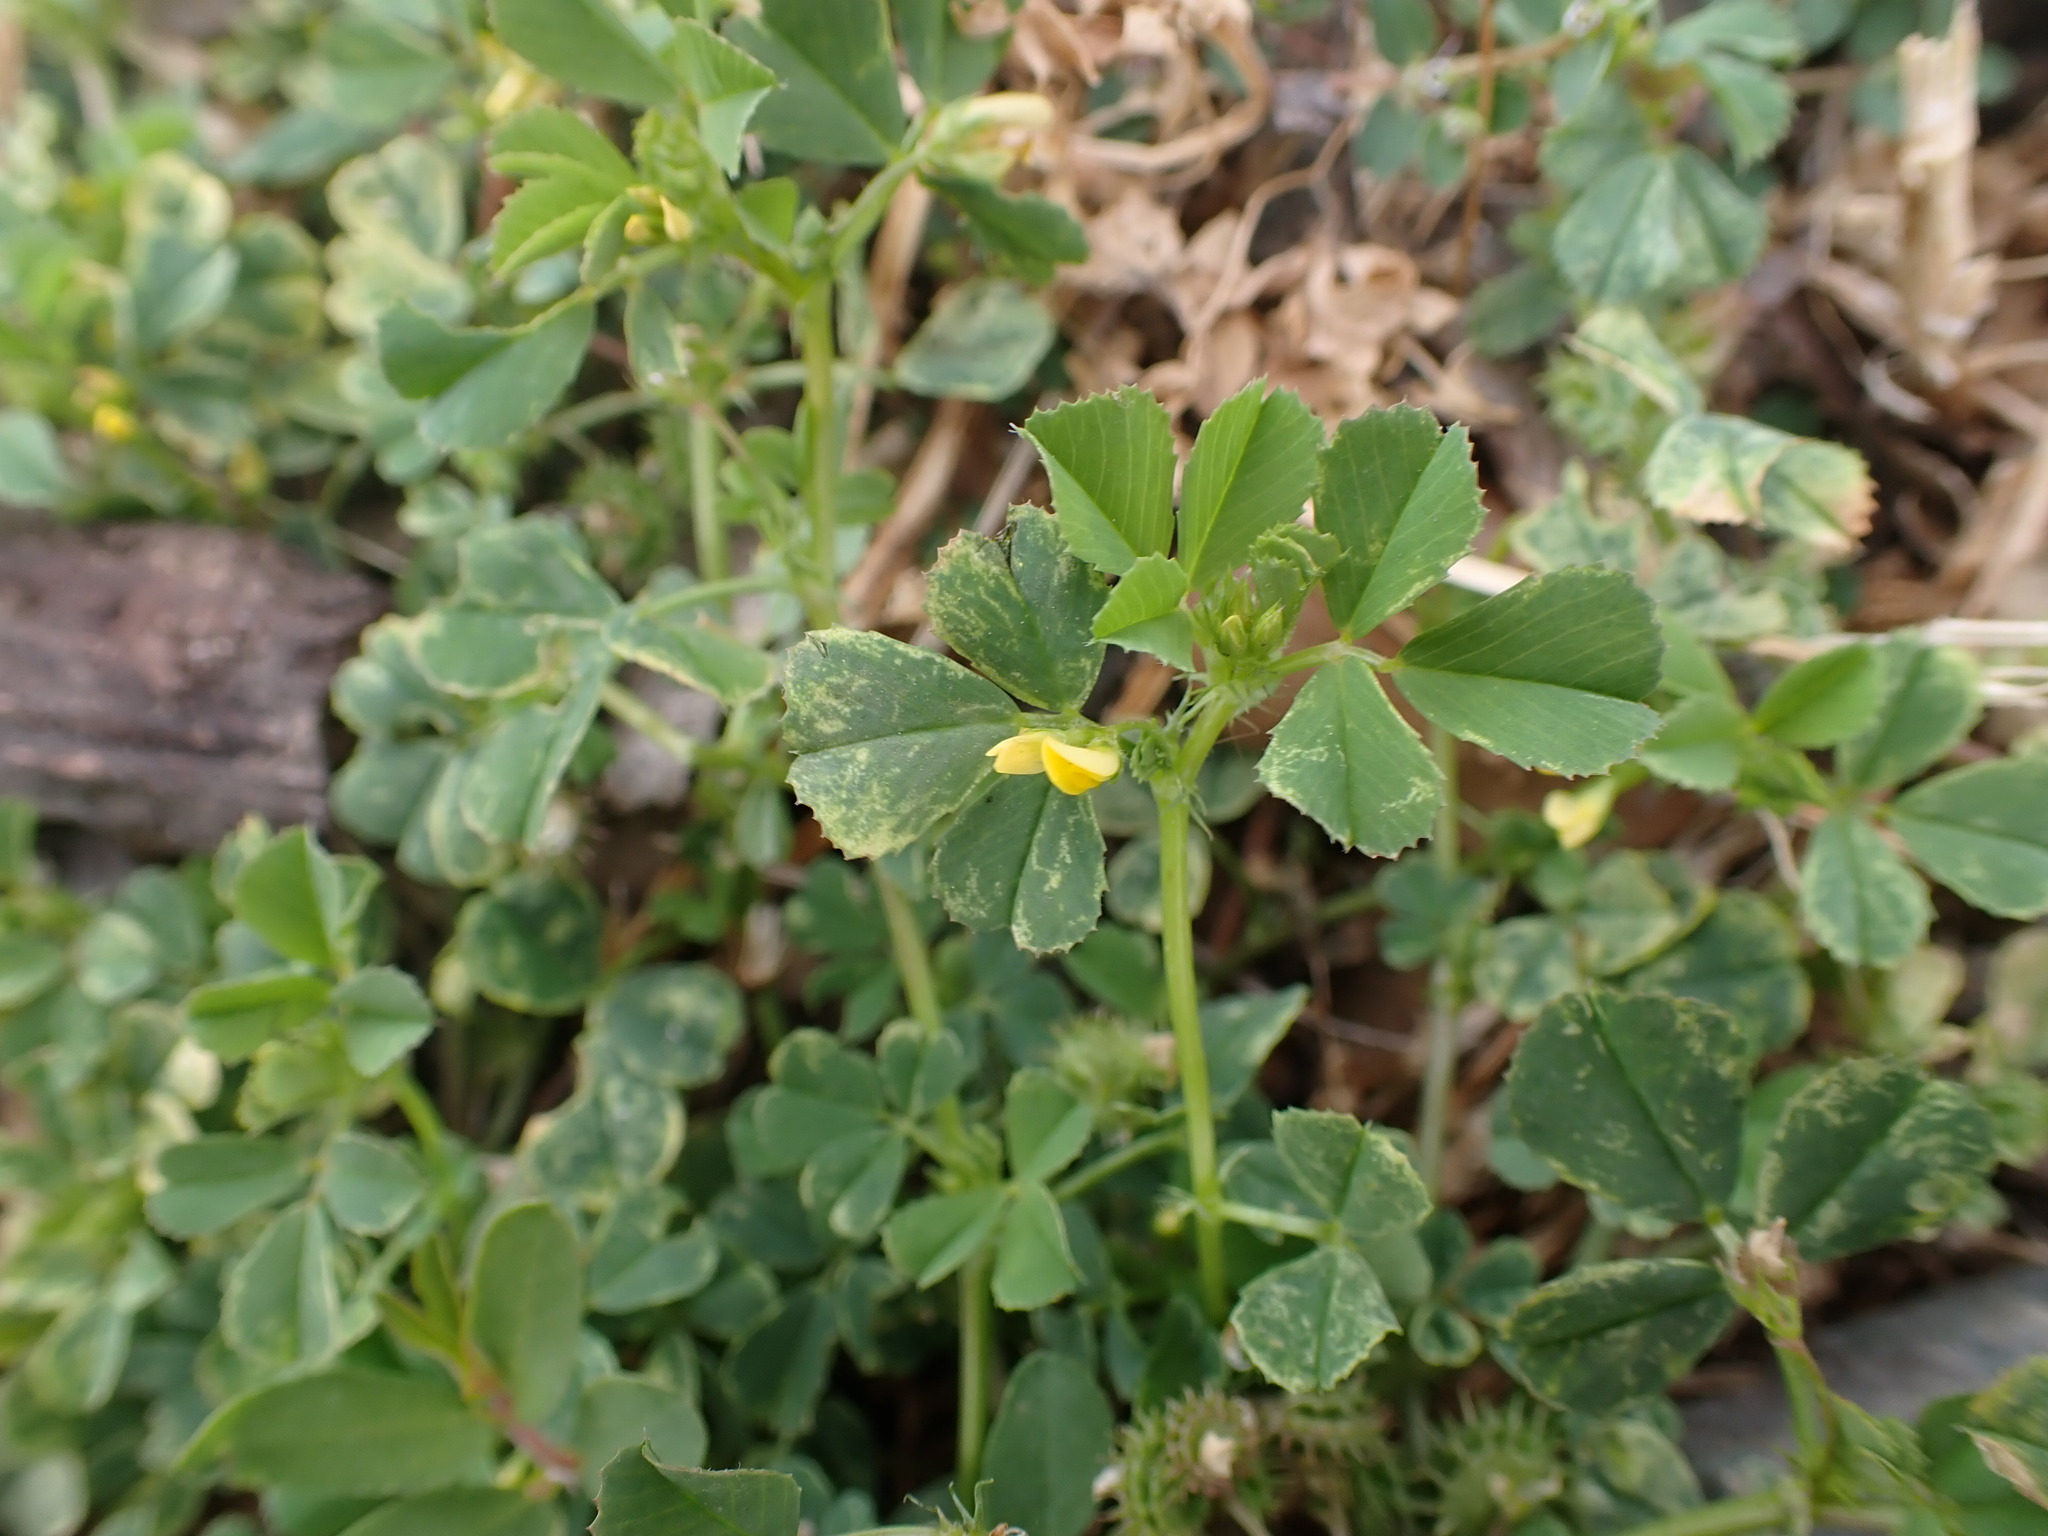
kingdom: Plantae
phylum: Tracheophyta
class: Magnoliopsida
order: Fabales
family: Fabaceae
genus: Medicago
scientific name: Medicago polymorpha
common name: Burclover
